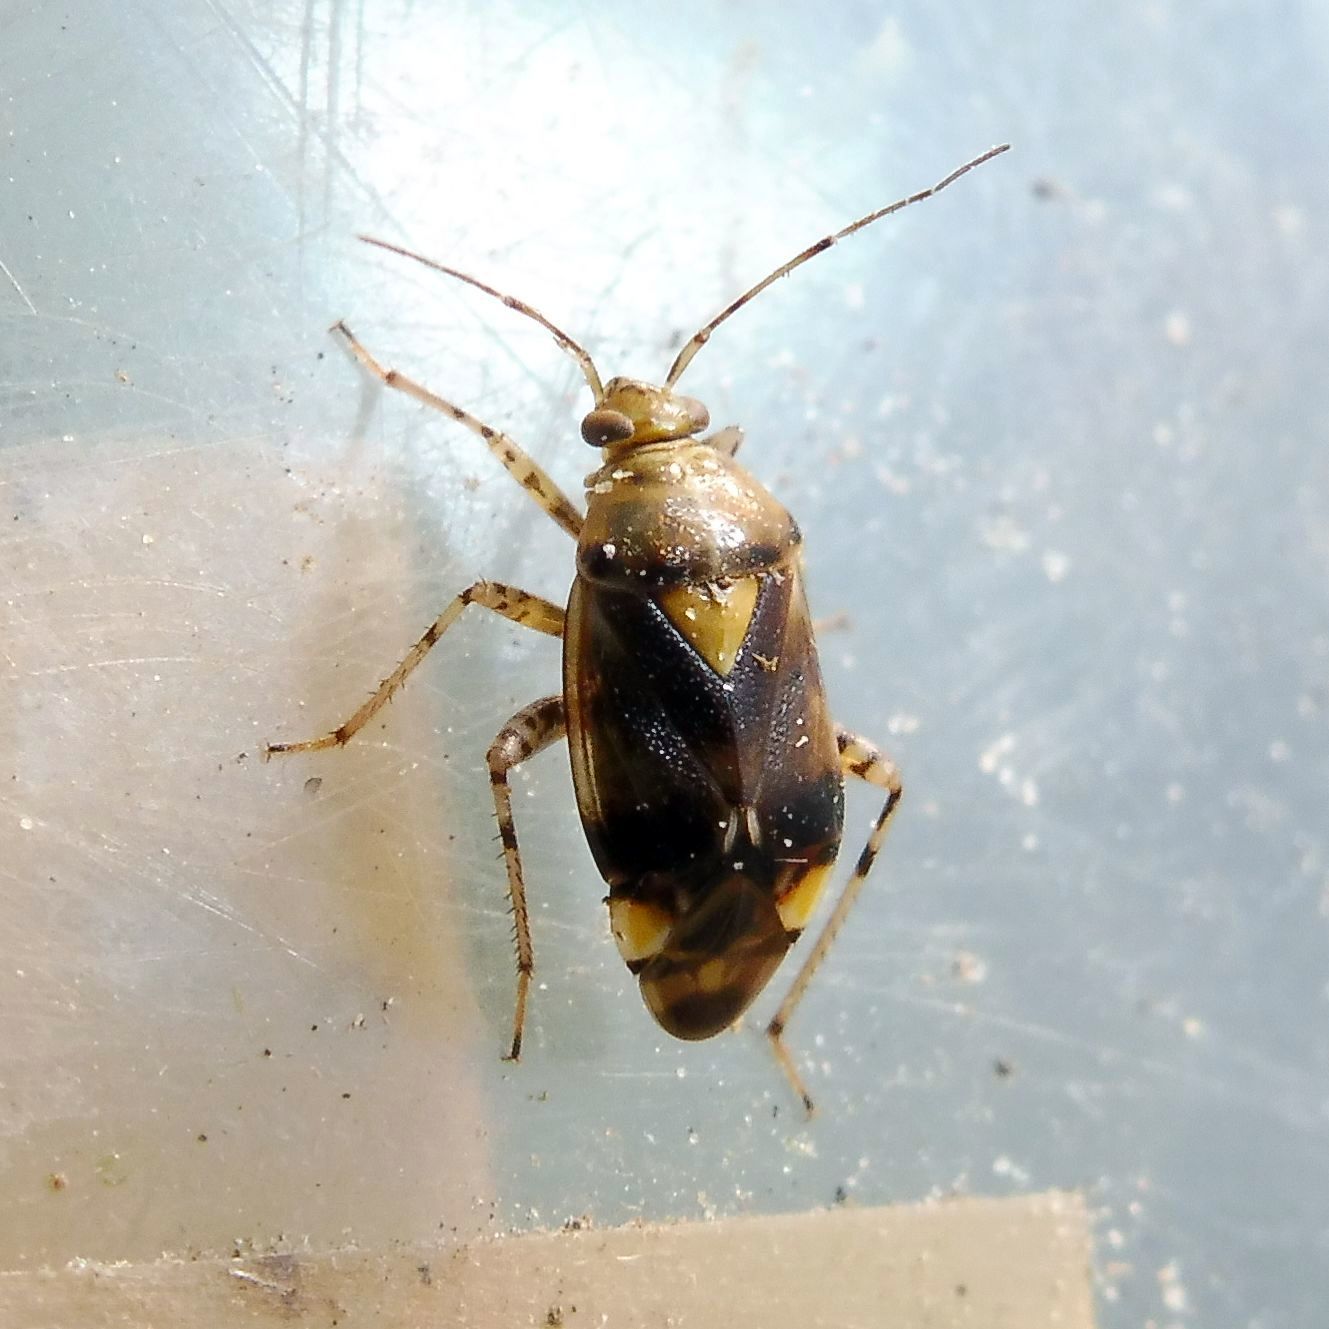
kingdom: Animalia
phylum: Arthropoda
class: Insecta
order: Hemiptera
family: Miridae
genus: Liocoris
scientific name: Liocoris tripustulatus
